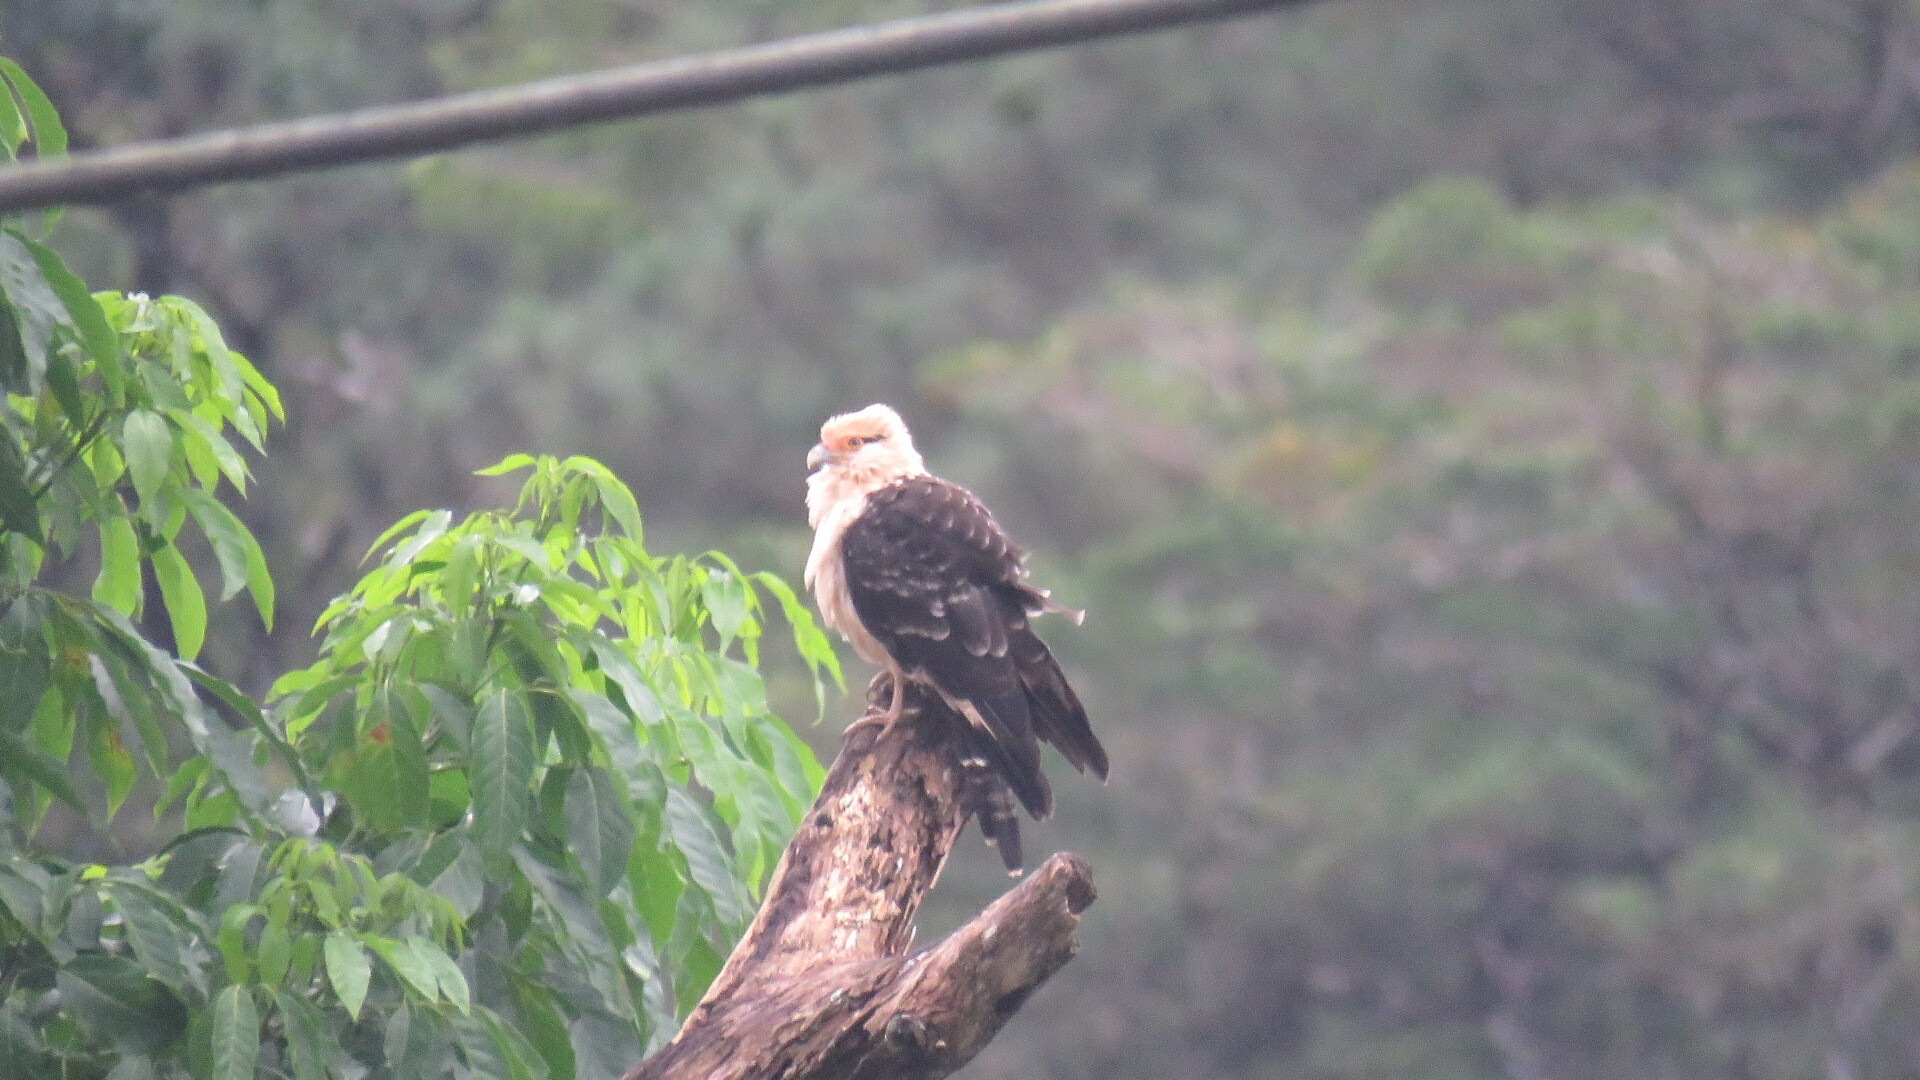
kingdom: Animalia
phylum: Chordata
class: Aves
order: Falconiformes
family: Falconidae
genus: Daptrius
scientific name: Daptrius
